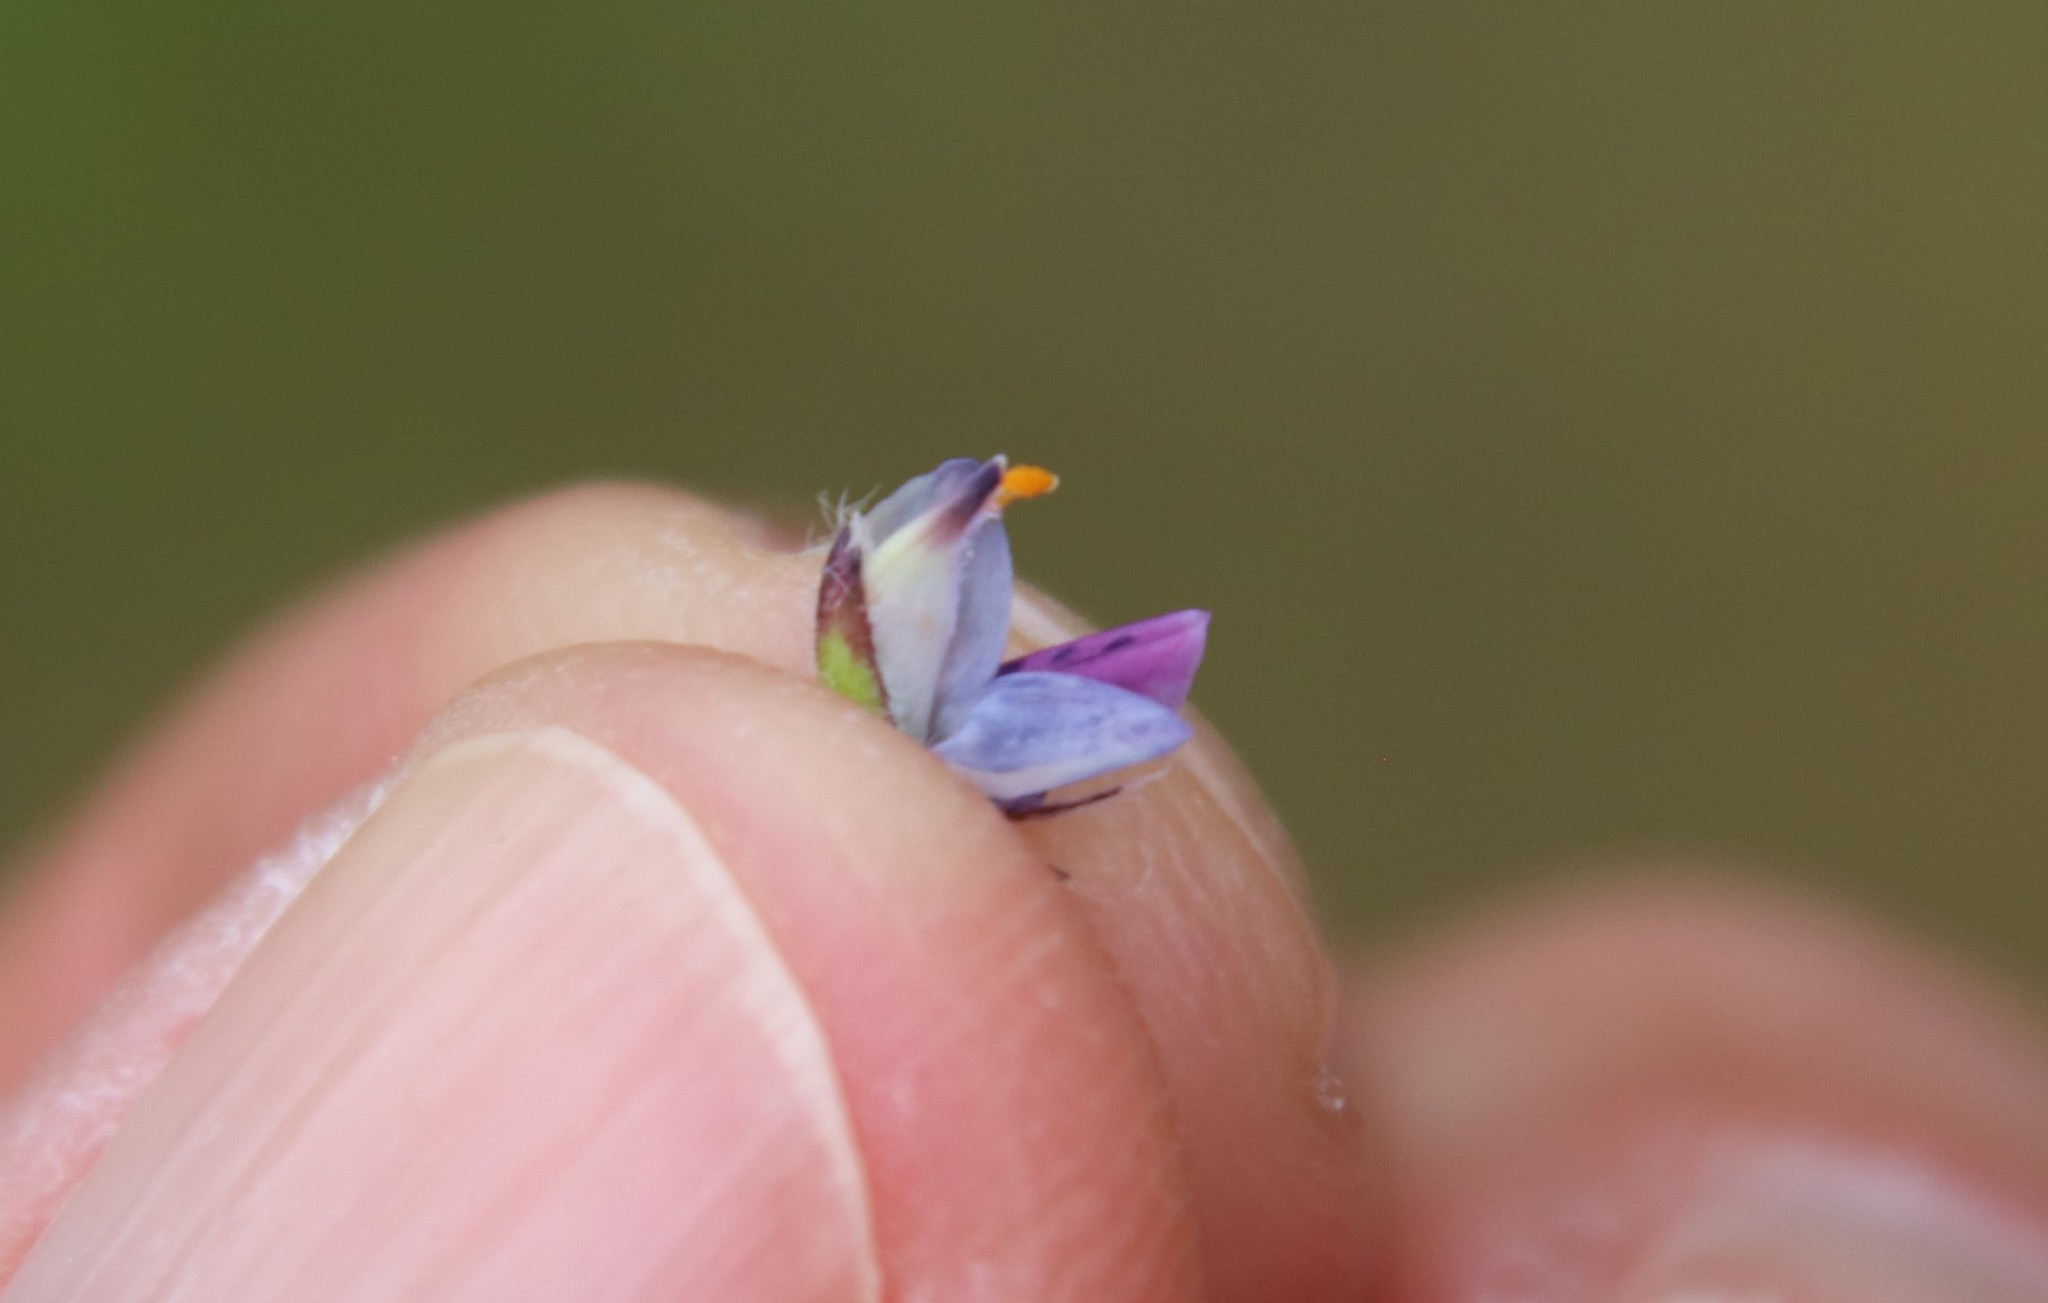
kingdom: Plantae
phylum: Tracheophyta
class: Magnoliopsida
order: Fabales
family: Fabaceae
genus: Lupinus
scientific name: Lupinus bicolor
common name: Miniature lupine
